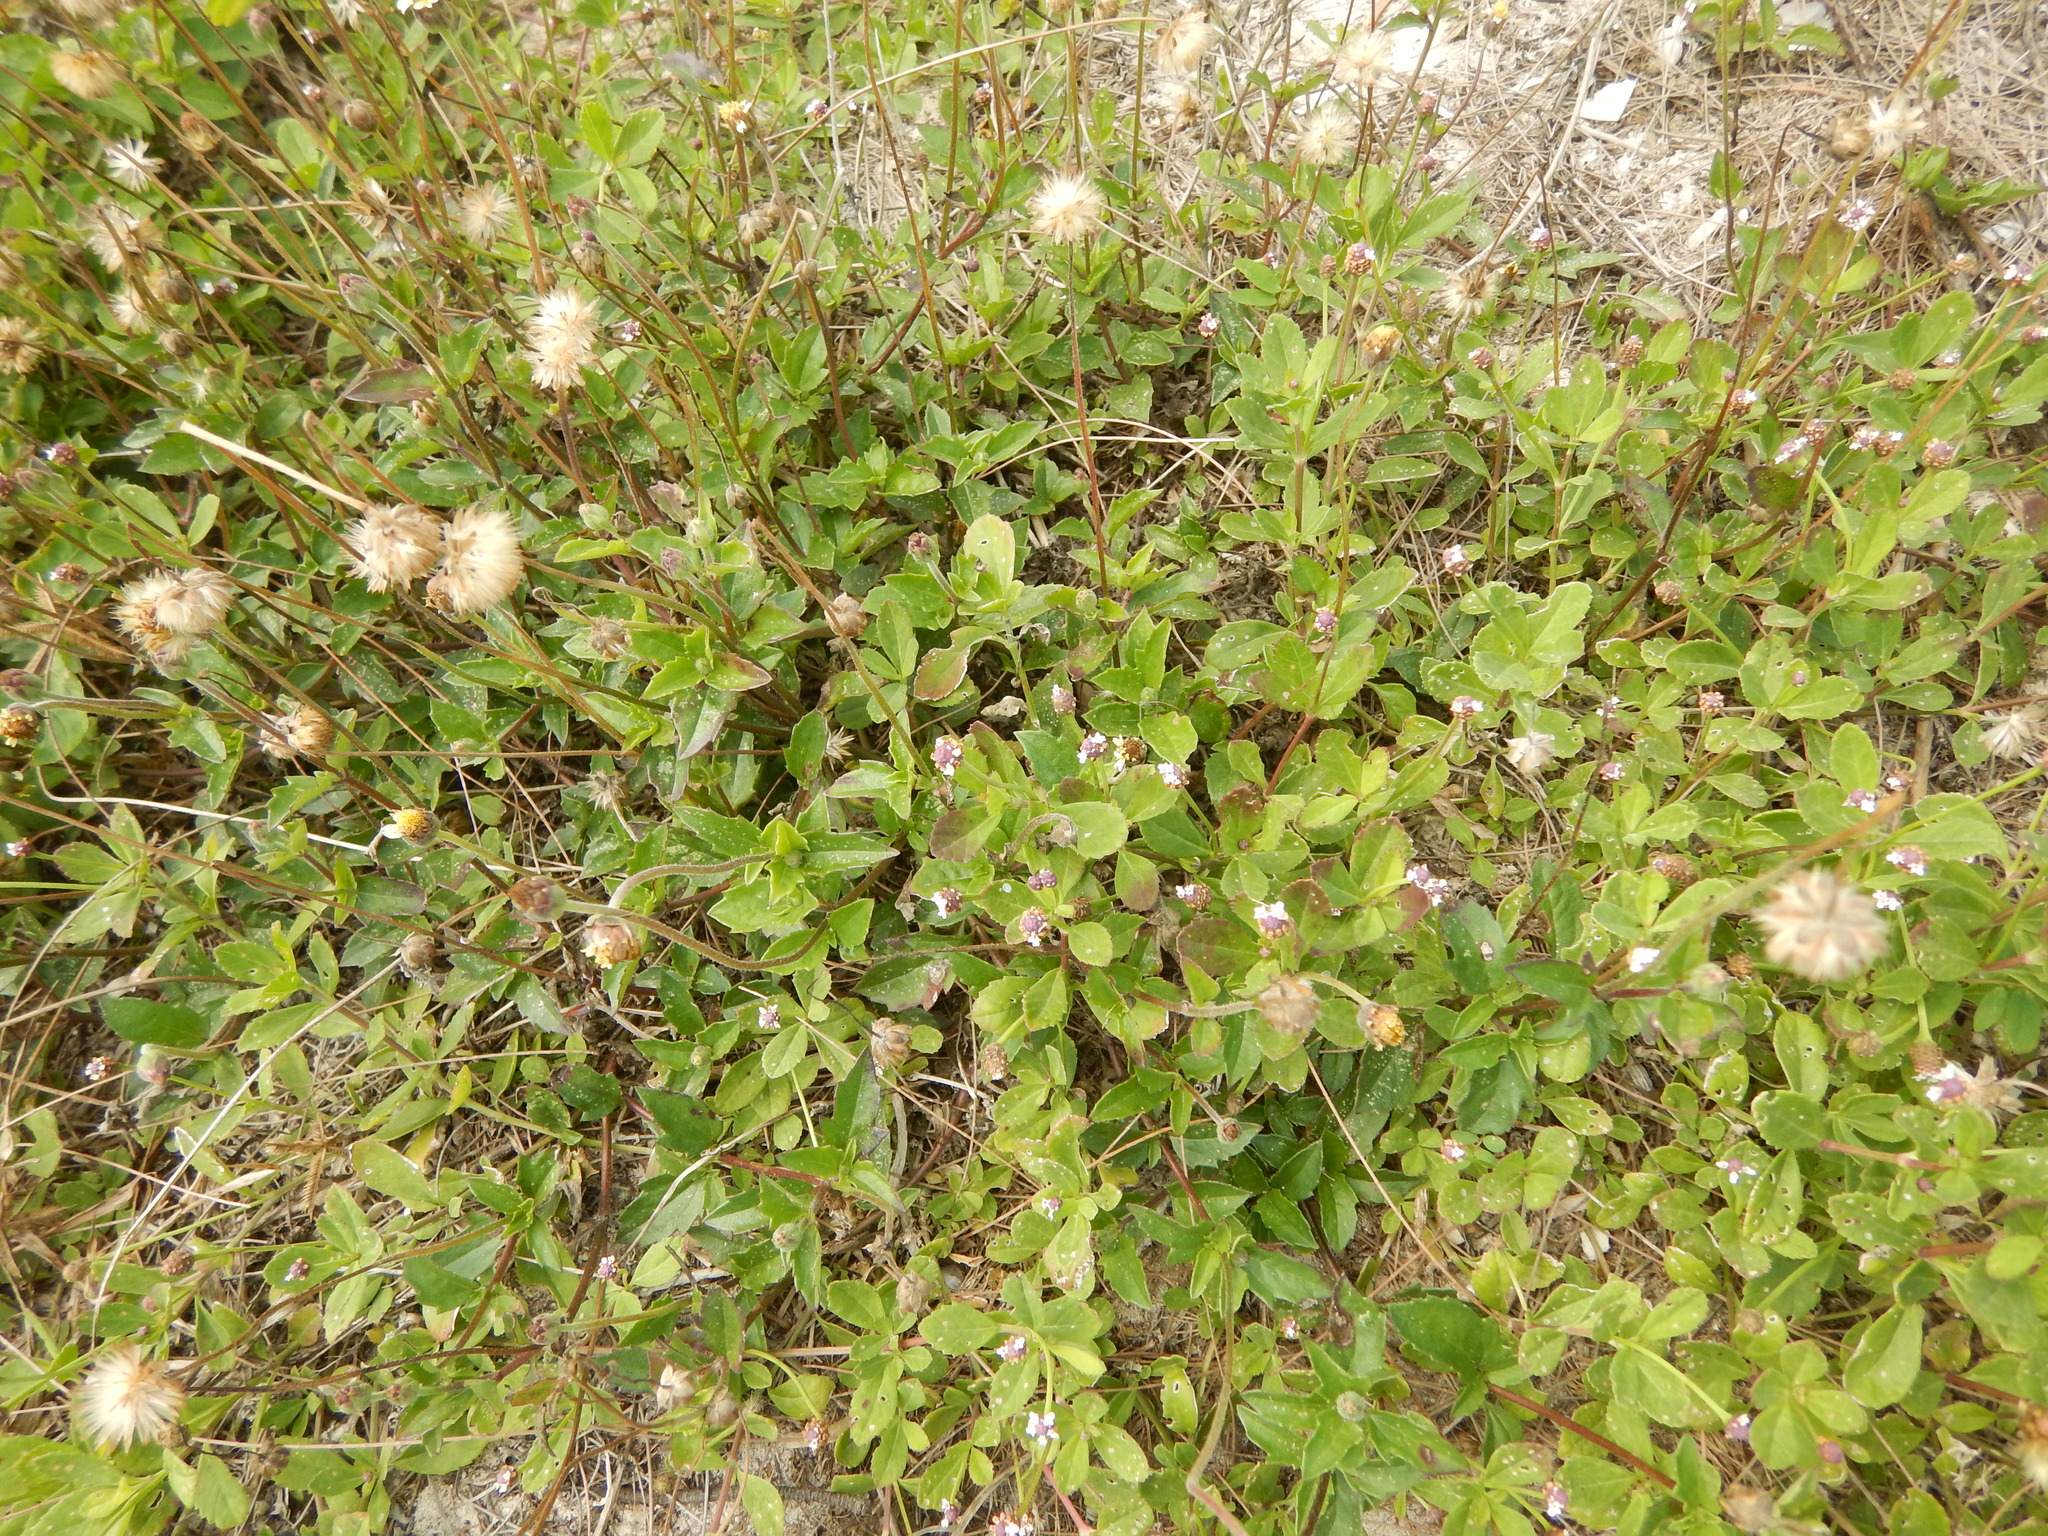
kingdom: Plantae
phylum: Tracheophyta
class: Magnoliopsida
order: Lamiales
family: Verbenaceae
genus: Phyla
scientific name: Phyla nodiflora
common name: Frogfruit
